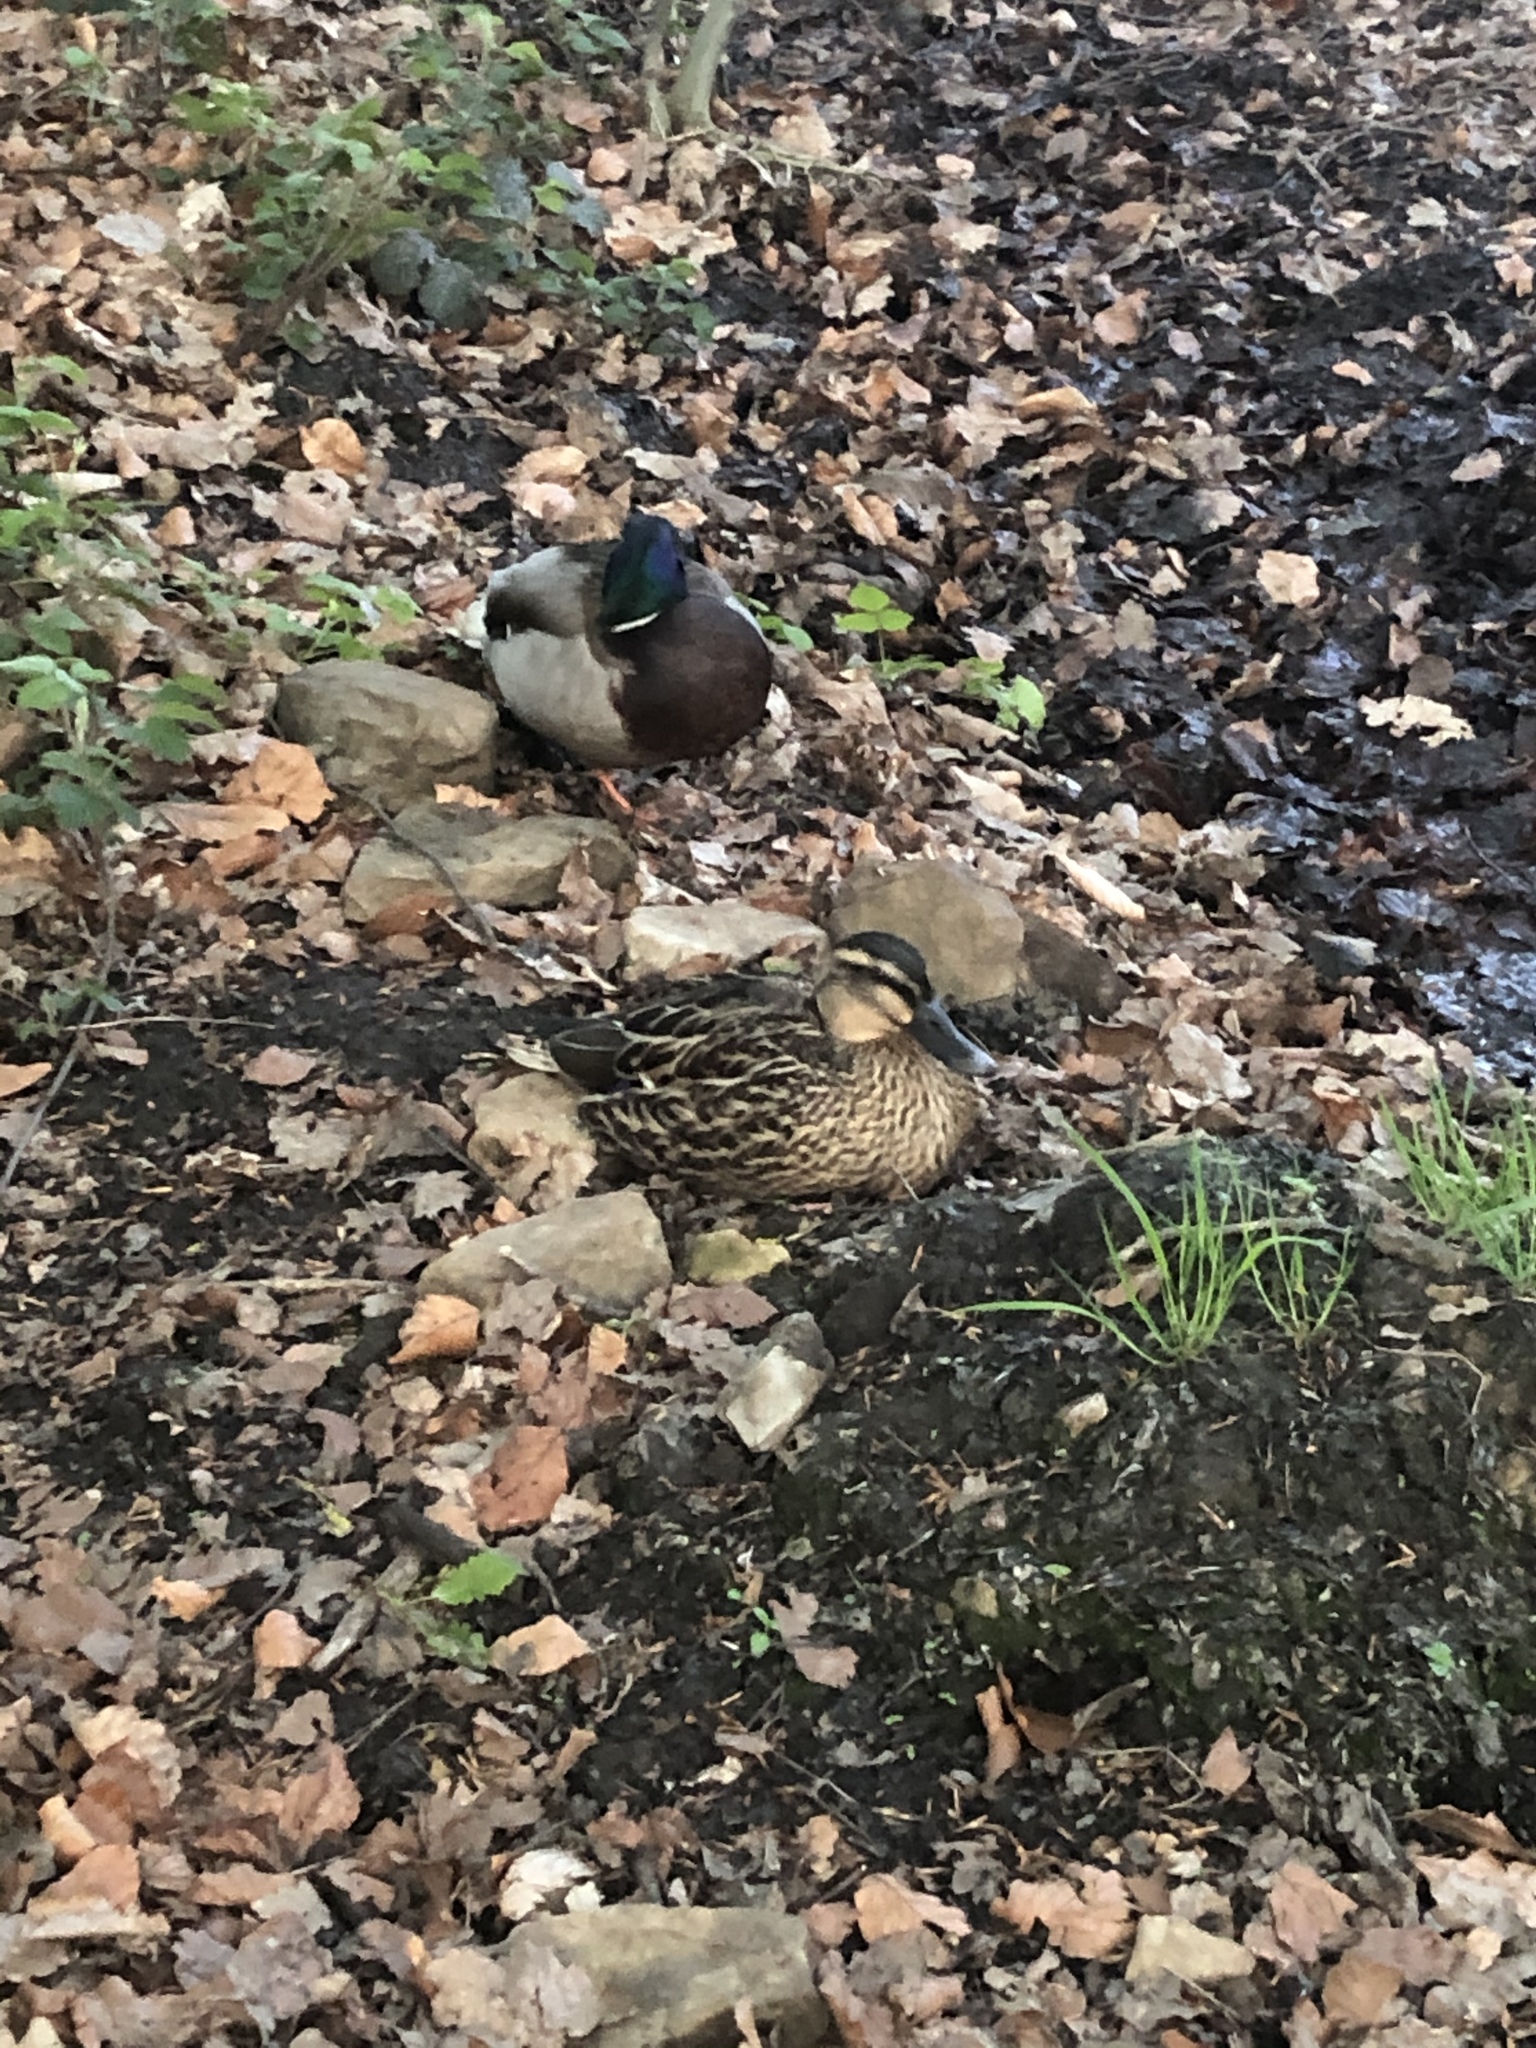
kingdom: Animalia
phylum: Chordata
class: Aves
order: Anseriformes
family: Anatidae
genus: Anas
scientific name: Anas platyrhynchos
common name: Mallard
